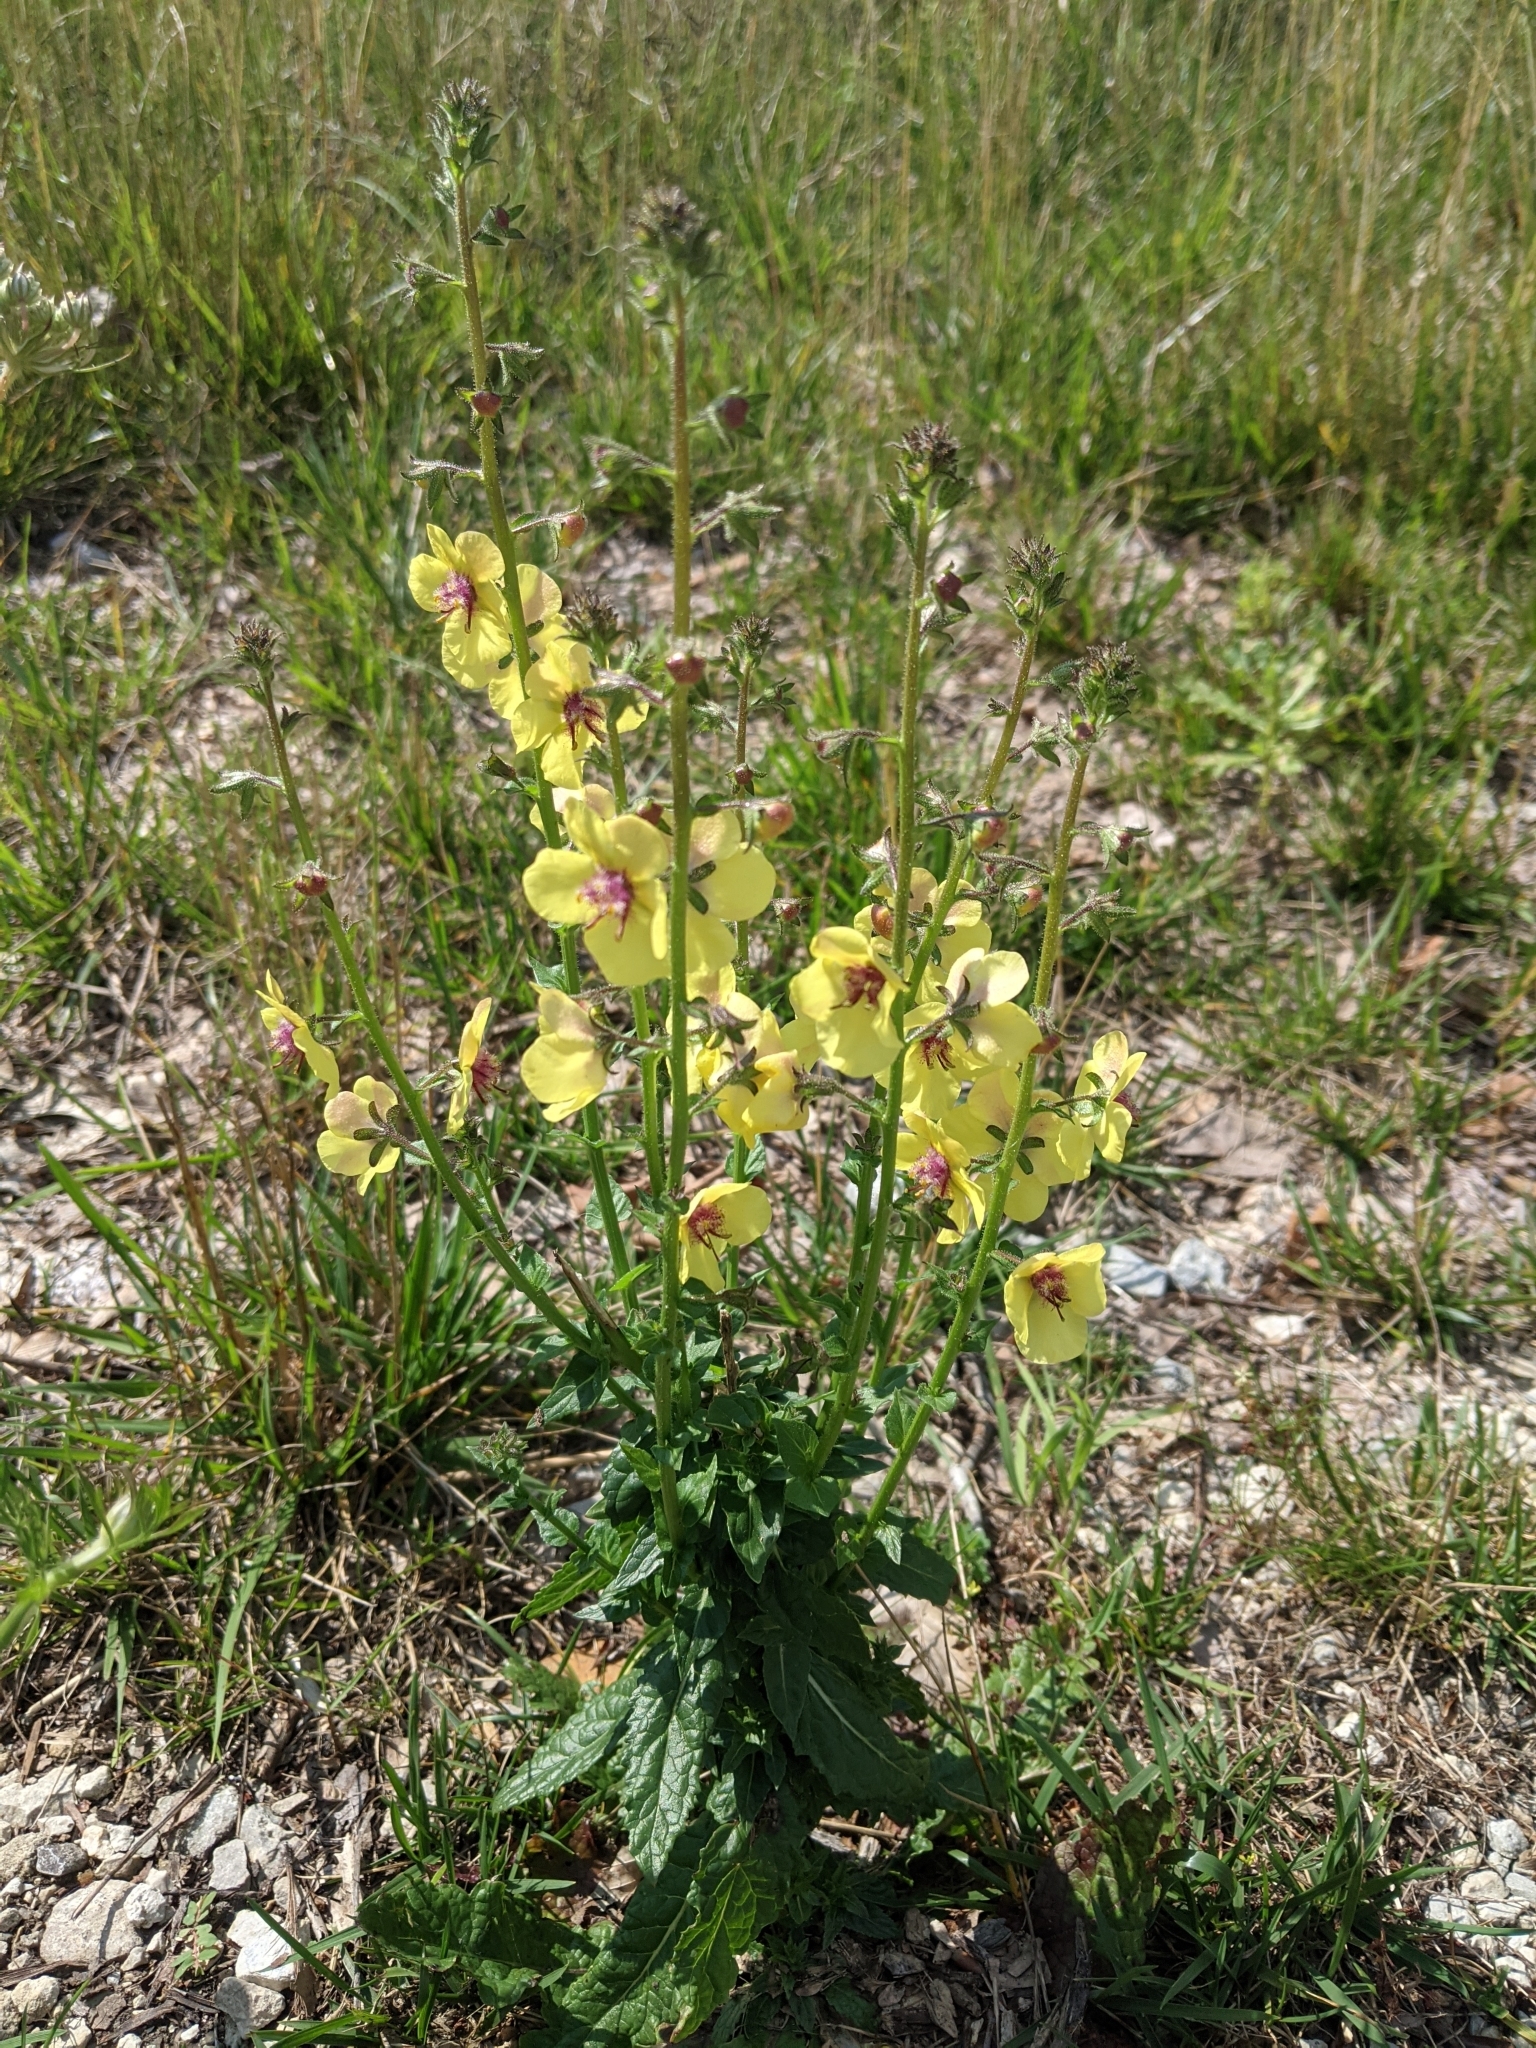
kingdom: Plantae
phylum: Tracheophyta
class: Magnoliopsida
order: Lamiales
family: Scrophulariaceae
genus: Verbascum
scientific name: Verbascum blattaria
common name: Moth mullein
